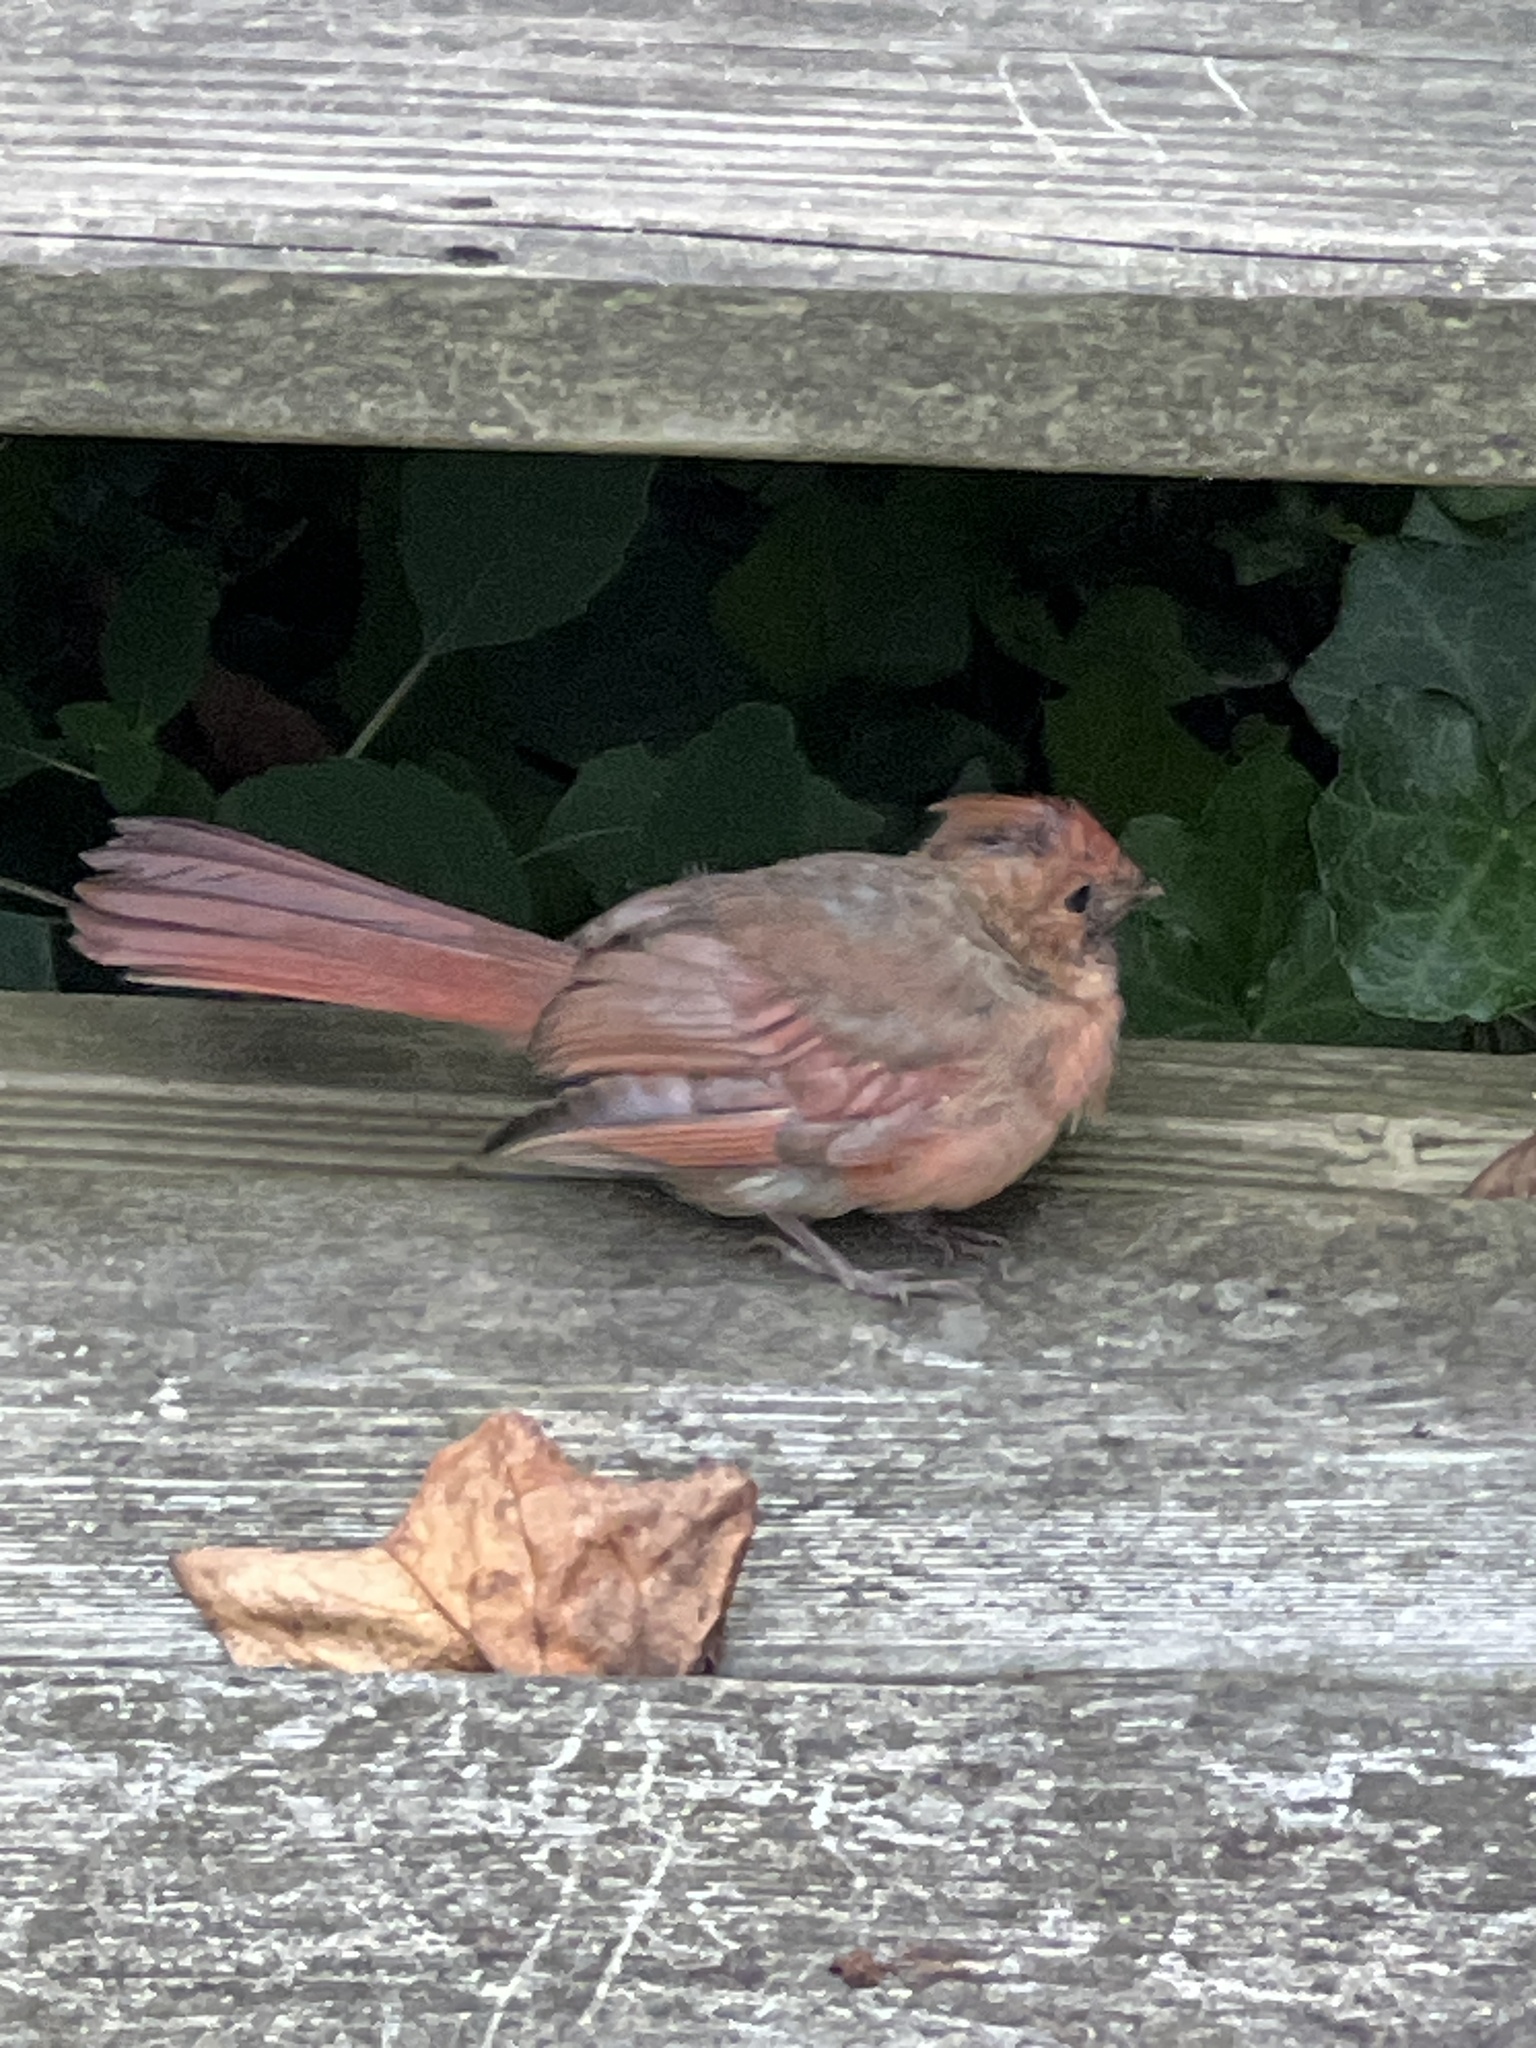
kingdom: Animalia
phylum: Chordata
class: Aves
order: Passeriformes
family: Cardinalidae
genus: Cardinalis
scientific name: Cardinalis cardinalis
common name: Northern cardinal
